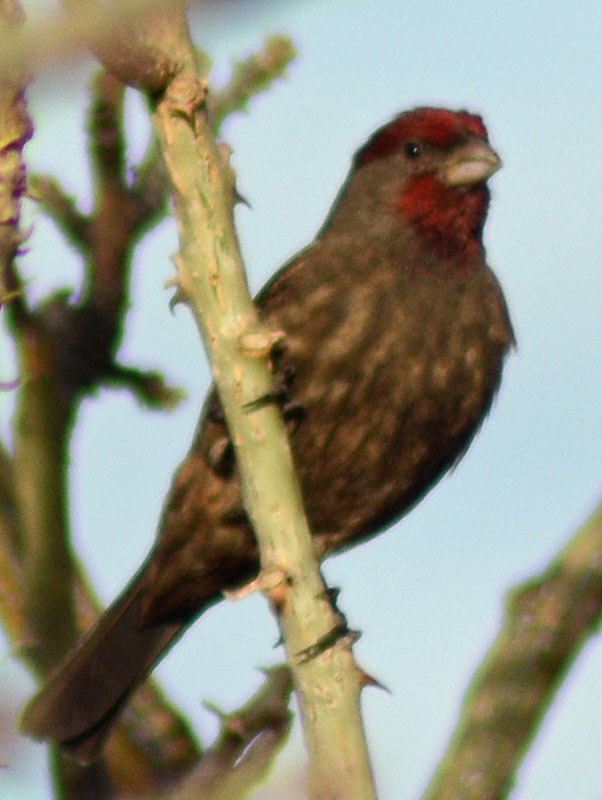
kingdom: Animalia
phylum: Chordata
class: Aves
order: Passeriformes
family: Fringillidae
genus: Haemorhous
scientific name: Haemorhous mexicanus
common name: House finch
